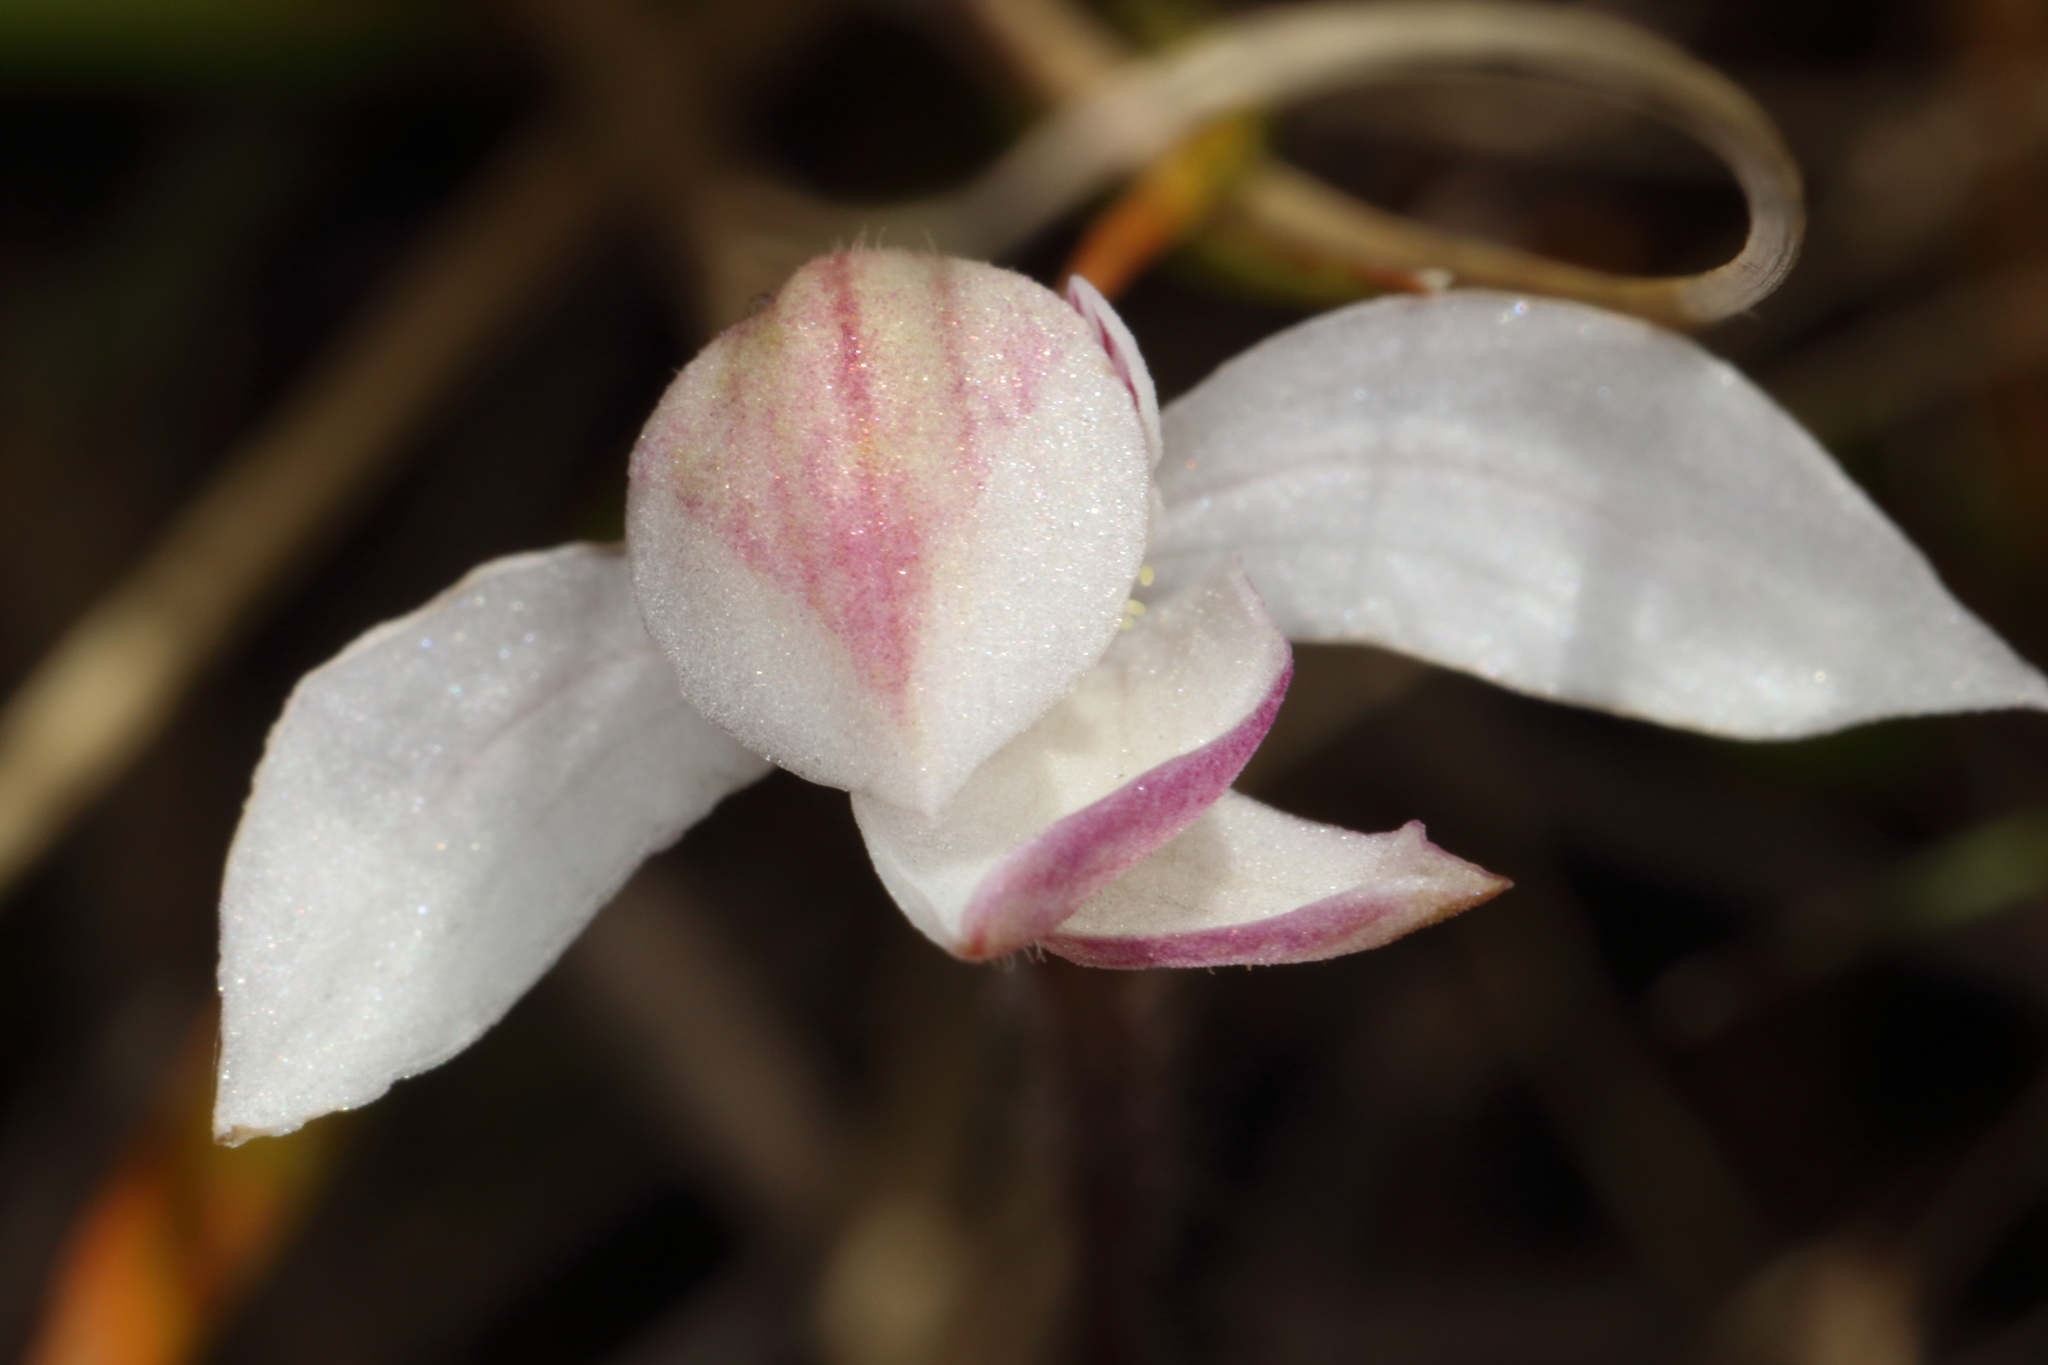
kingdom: Plantae
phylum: Tracheophyta
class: Liliopsida
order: Asparagales
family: Orchidaceae
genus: Caladenia
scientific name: Caladenia lyallii
